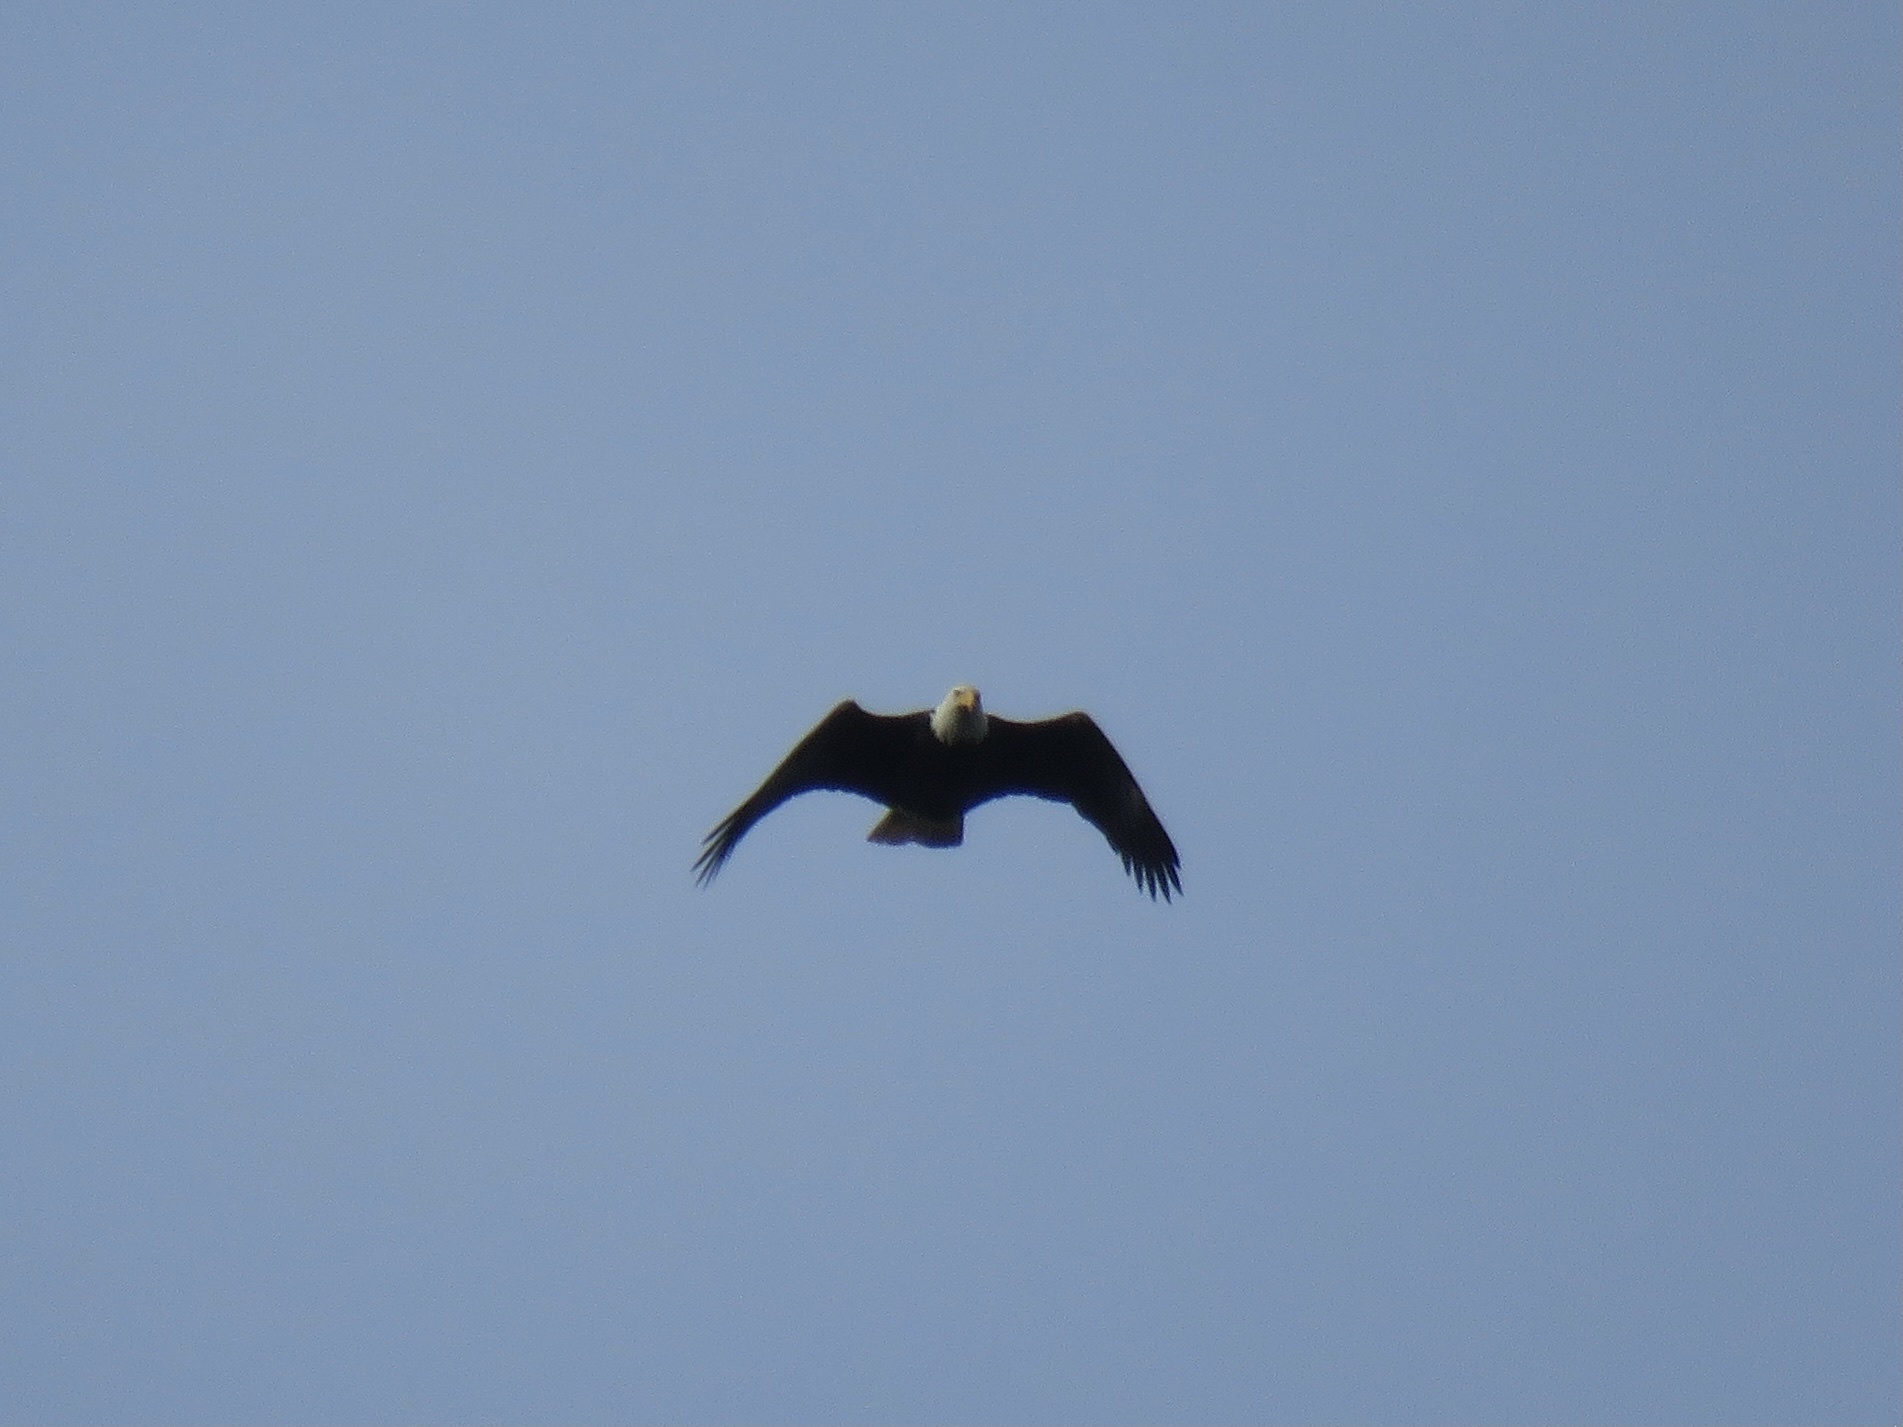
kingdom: Animalia
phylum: Chordata
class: Aves
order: Accipitriformes
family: Accipitridae
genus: Haliaeetus
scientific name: Haliaeetus leucocephalus
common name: Bald eagle
